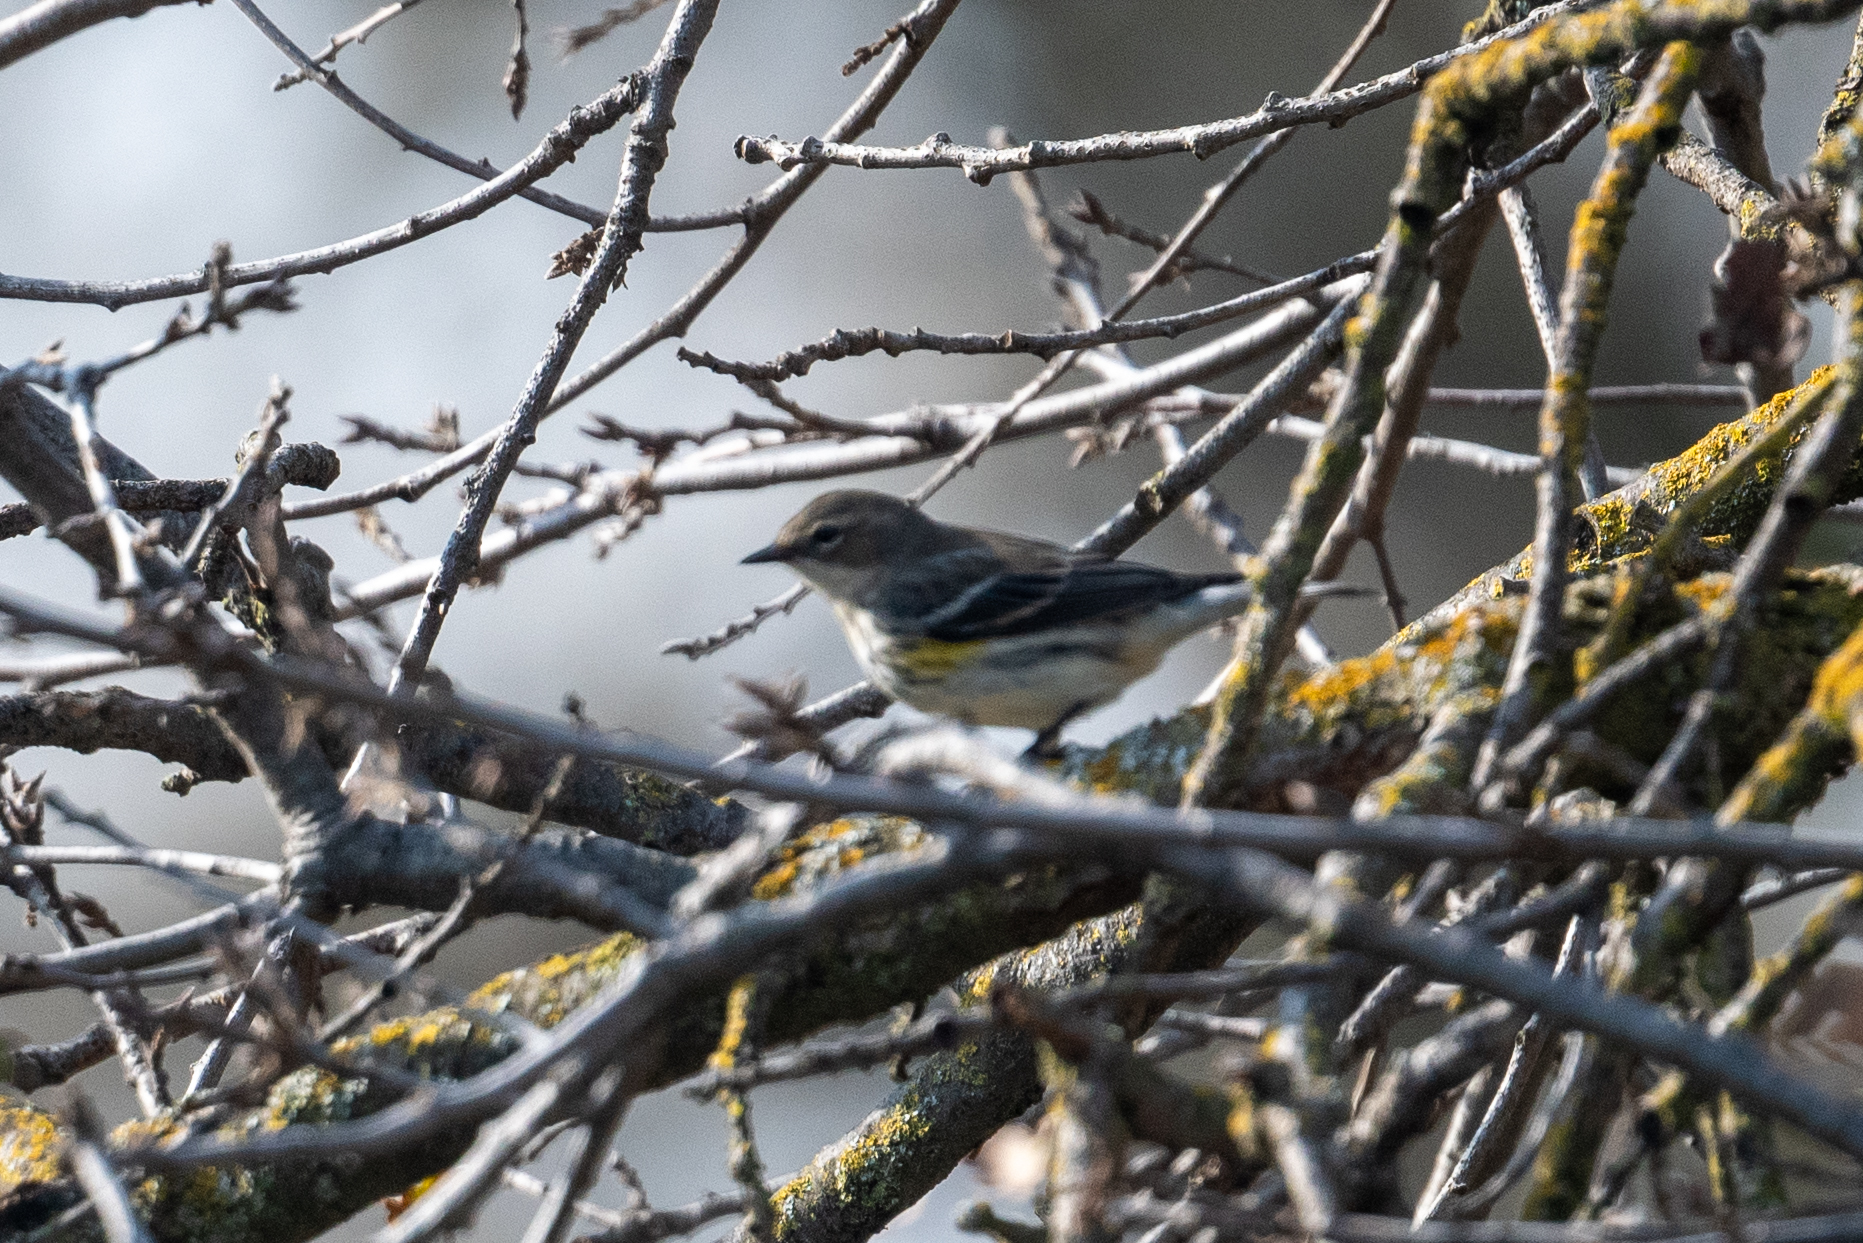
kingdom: Animalia
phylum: Chordata
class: Aves
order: Passeriformes
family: Parulidae
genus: Setophaga
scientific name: Setophaga coronata
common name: Myrtle warbler
